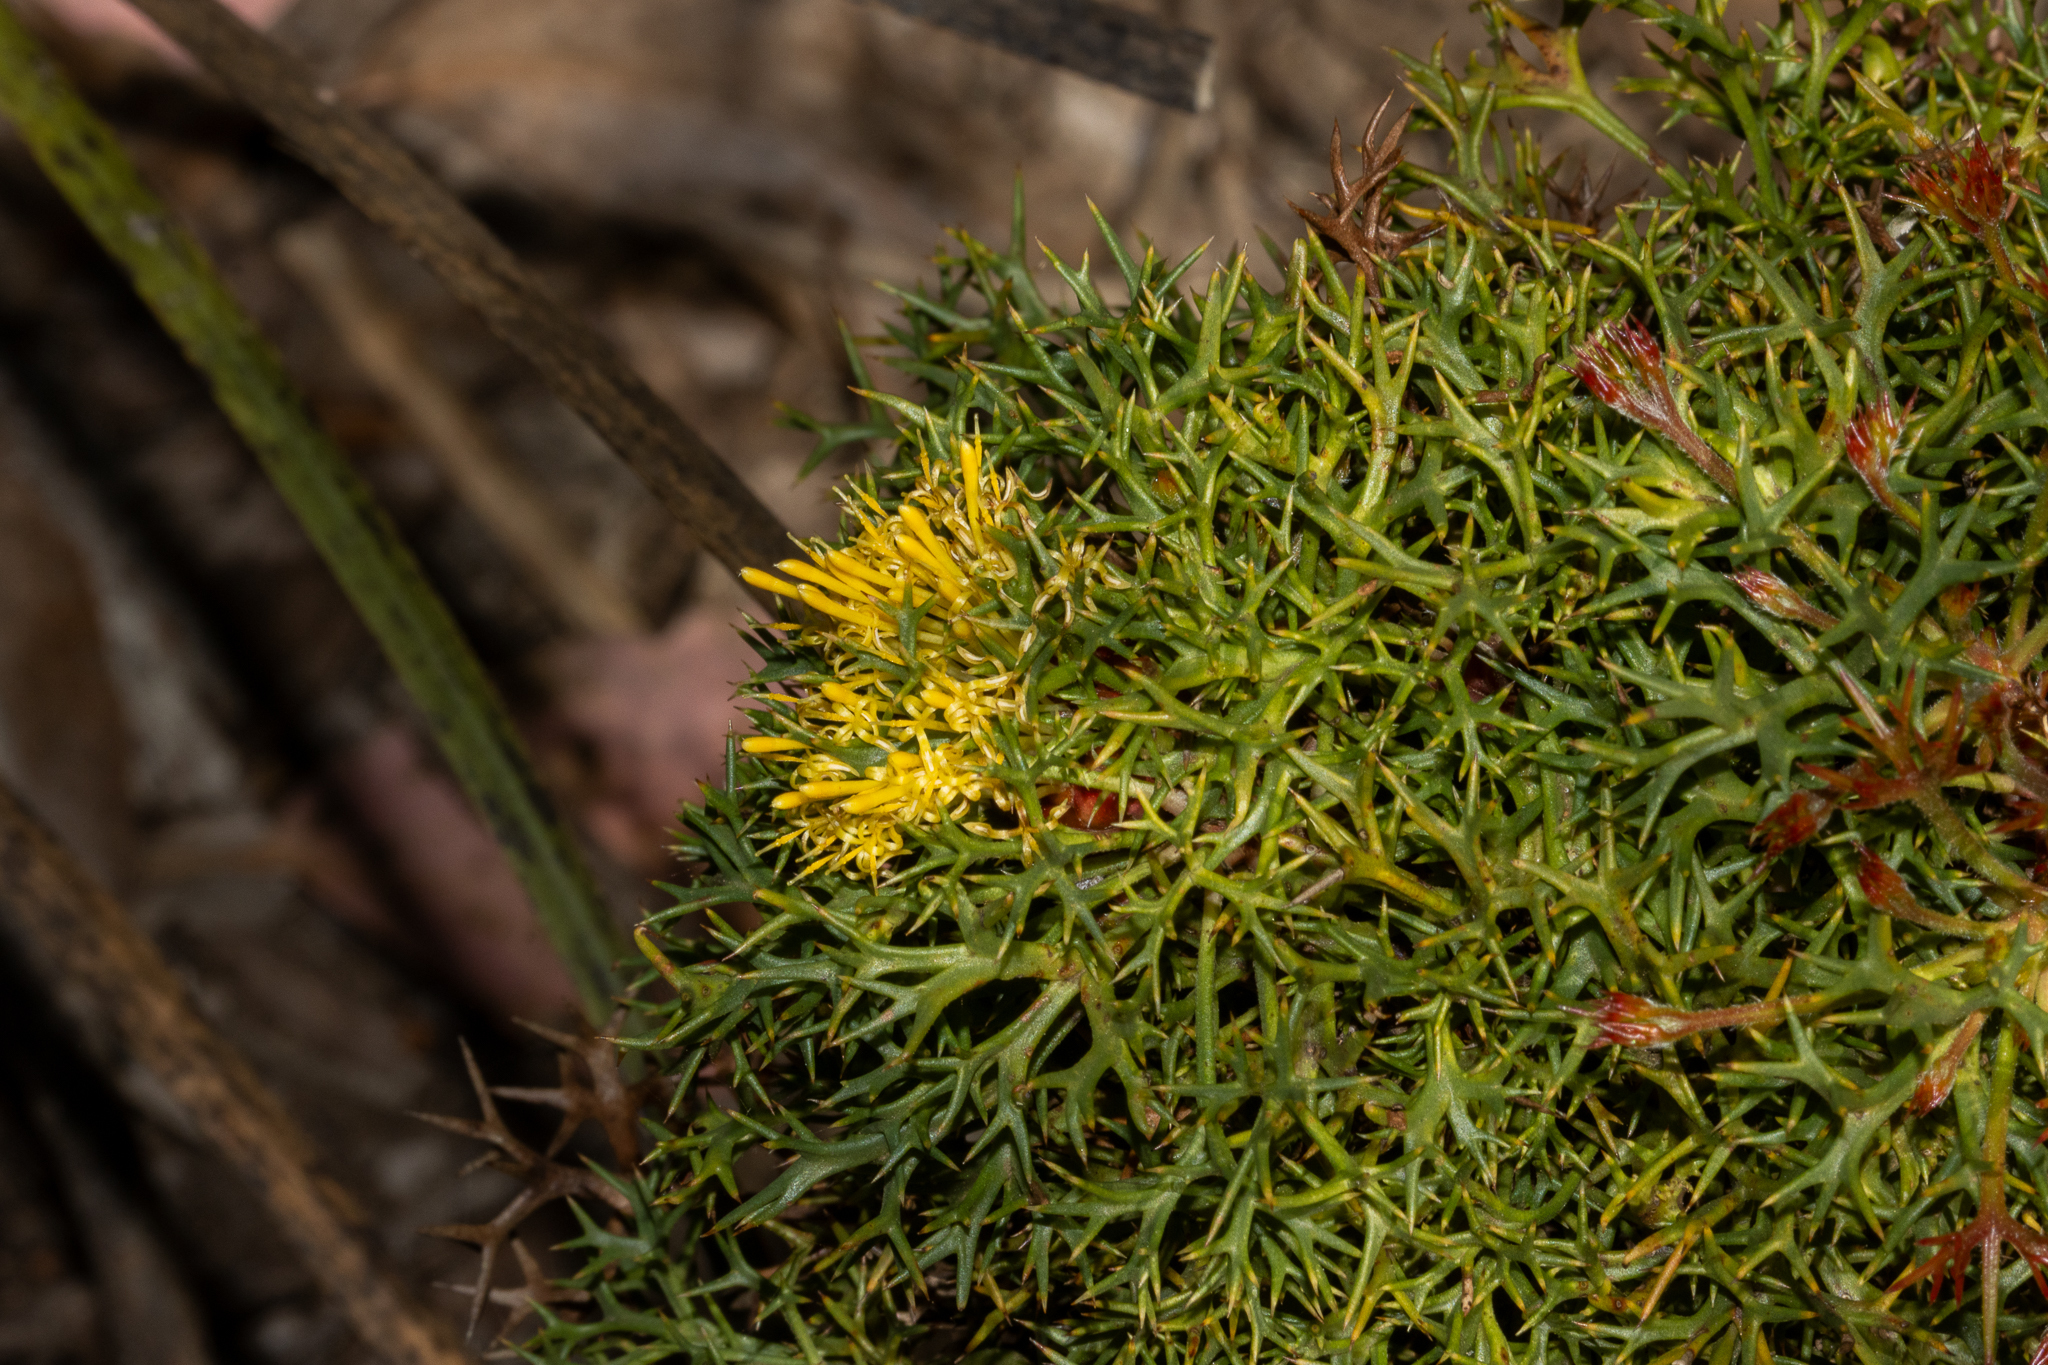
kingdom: Plantae
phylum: Tracheophyta
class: Magnoliopsida
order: Proteales
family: Proteaceae
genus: Isopogon
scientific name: Isopogon ceratophyllus
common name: Horny cone-bush
